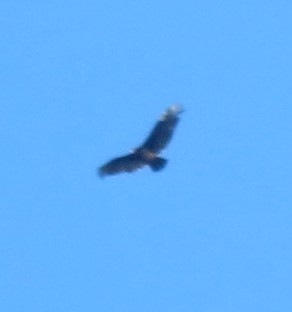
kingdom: Animalia
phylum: Chordata
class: Aves
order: Accipitriformes
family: Cathartidae
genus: Cathartes
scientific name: Cathartes aura
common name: Turkey vulture
